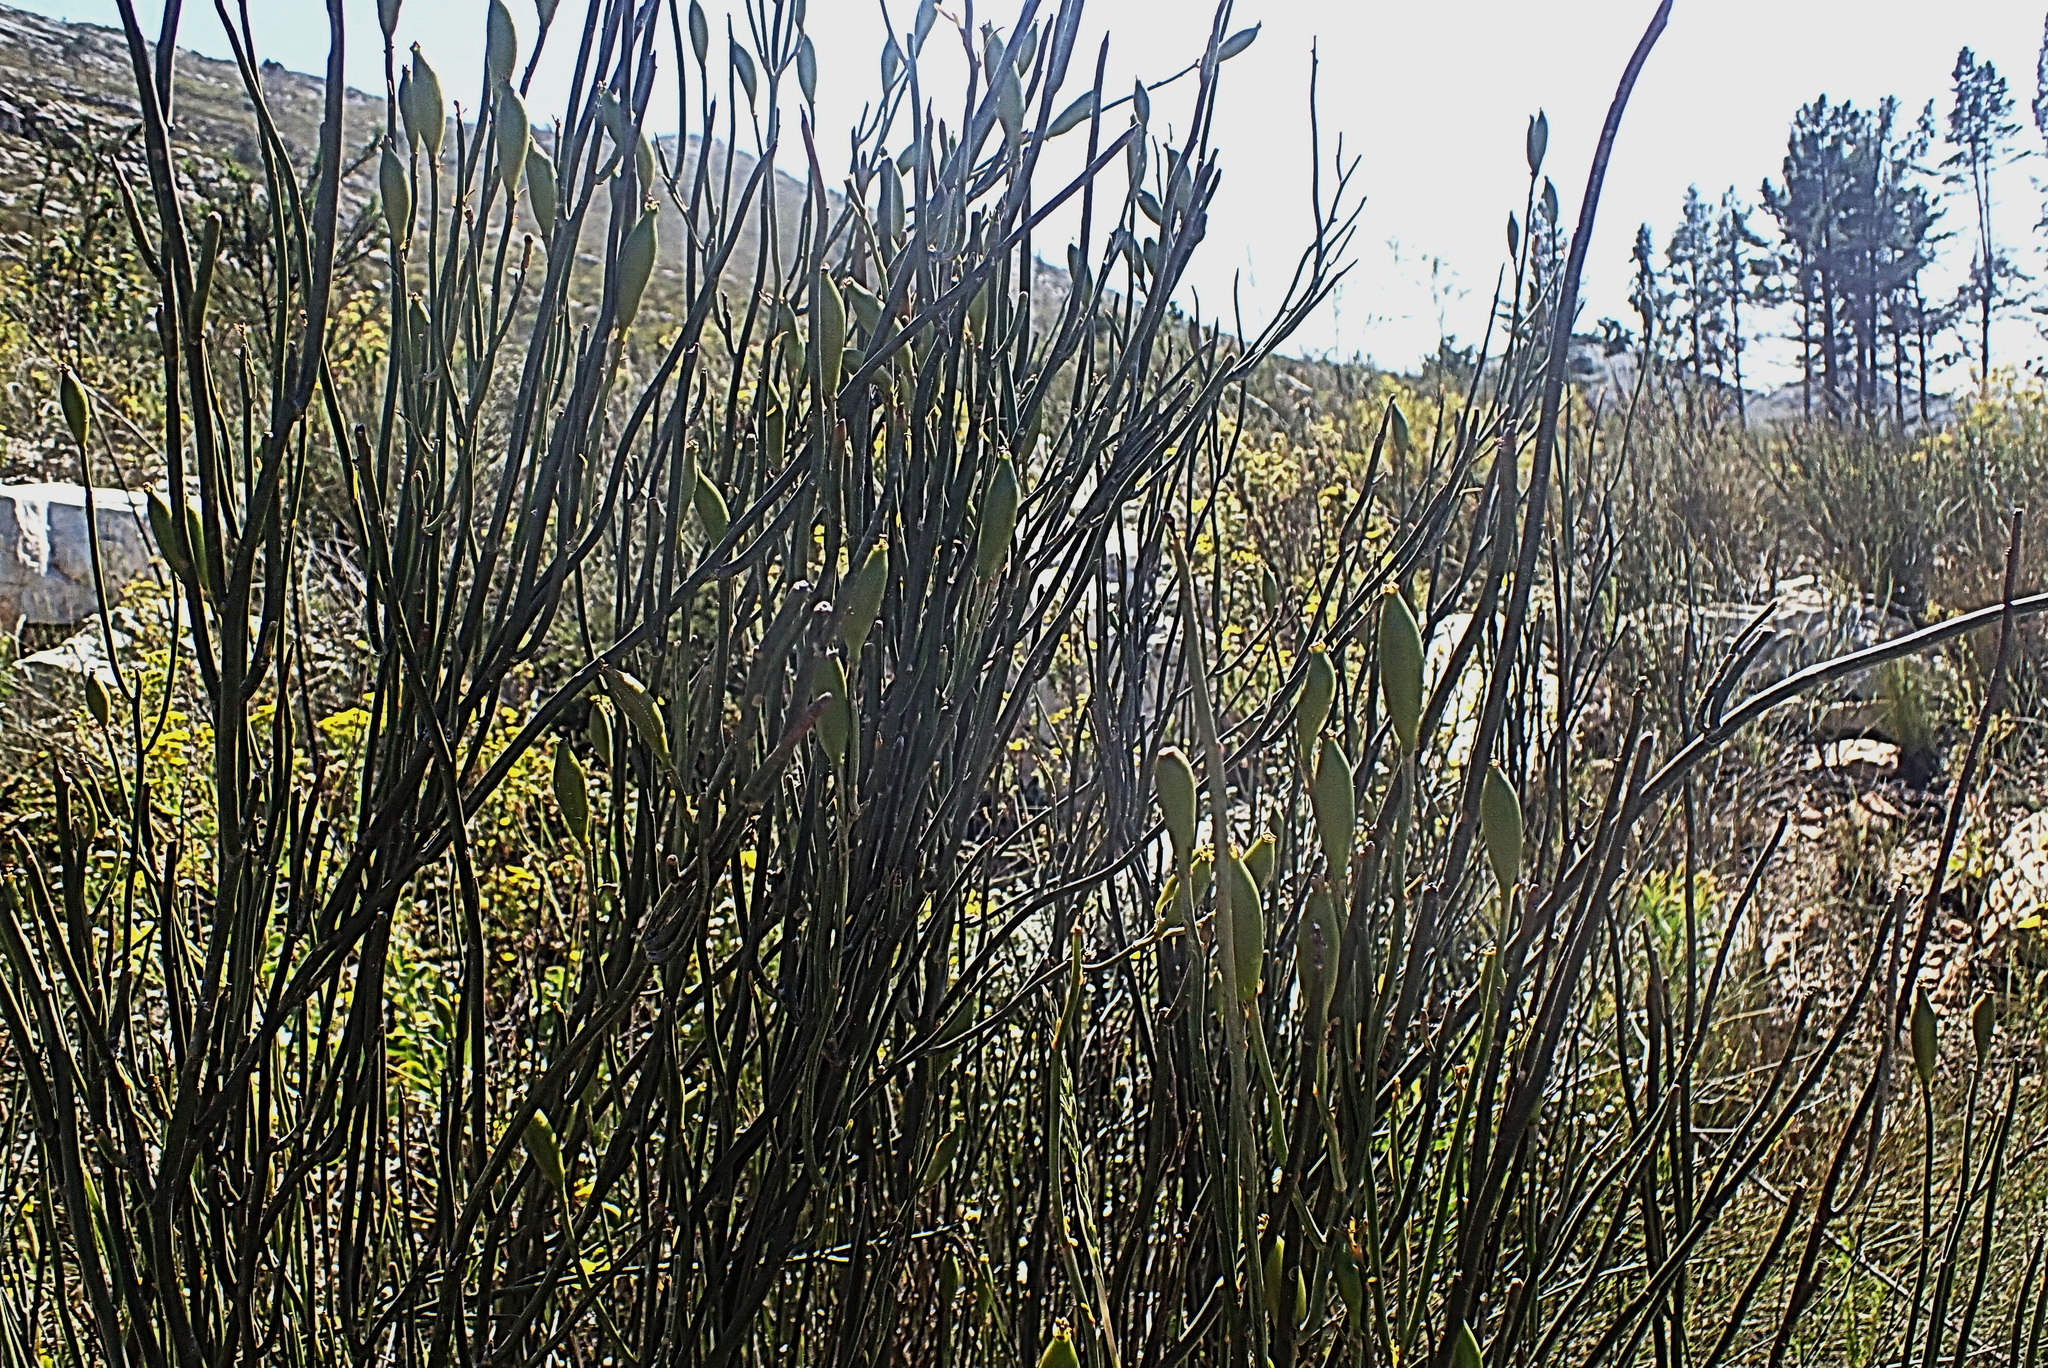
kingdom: Plantae
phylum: Tracheophyta
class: Magnoliopsida
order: Solanales
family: Montiniaceae
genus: Montinia
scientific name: Montinia caryophyllacea
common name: Wild clove-bush
